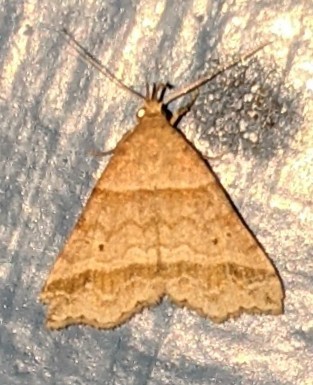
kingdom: Animalia
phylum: Arthropoda
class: Insecta
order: Lepidoptera
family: Erebidae
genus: Phaeolita
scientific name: Phaeolita pyramusalis
